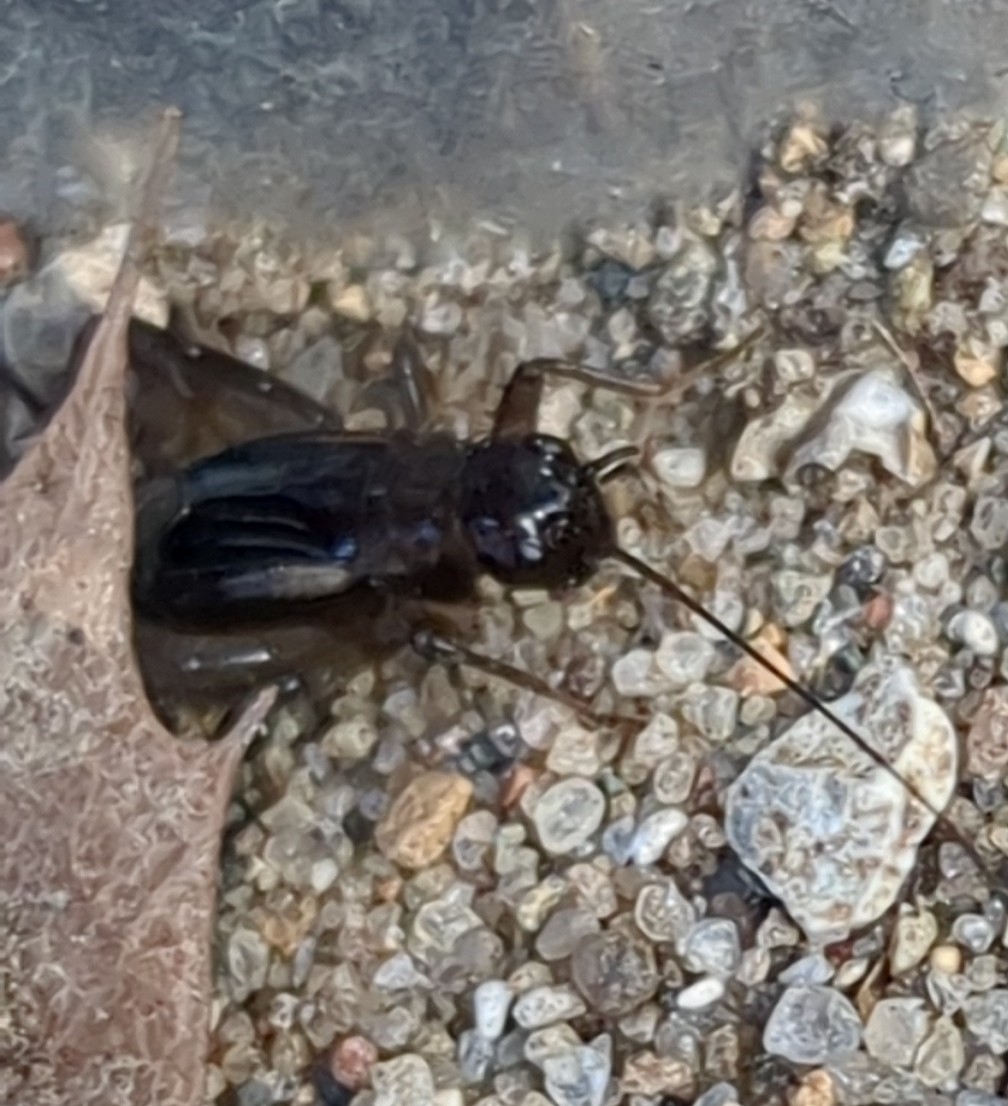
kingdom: Animalia
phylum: Arthropoda
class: Insecta
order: Orthoptera
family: Trigonidiidae
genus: Eunemobius
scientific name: Eunemobius carolinus
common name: Carolina ground cricket
